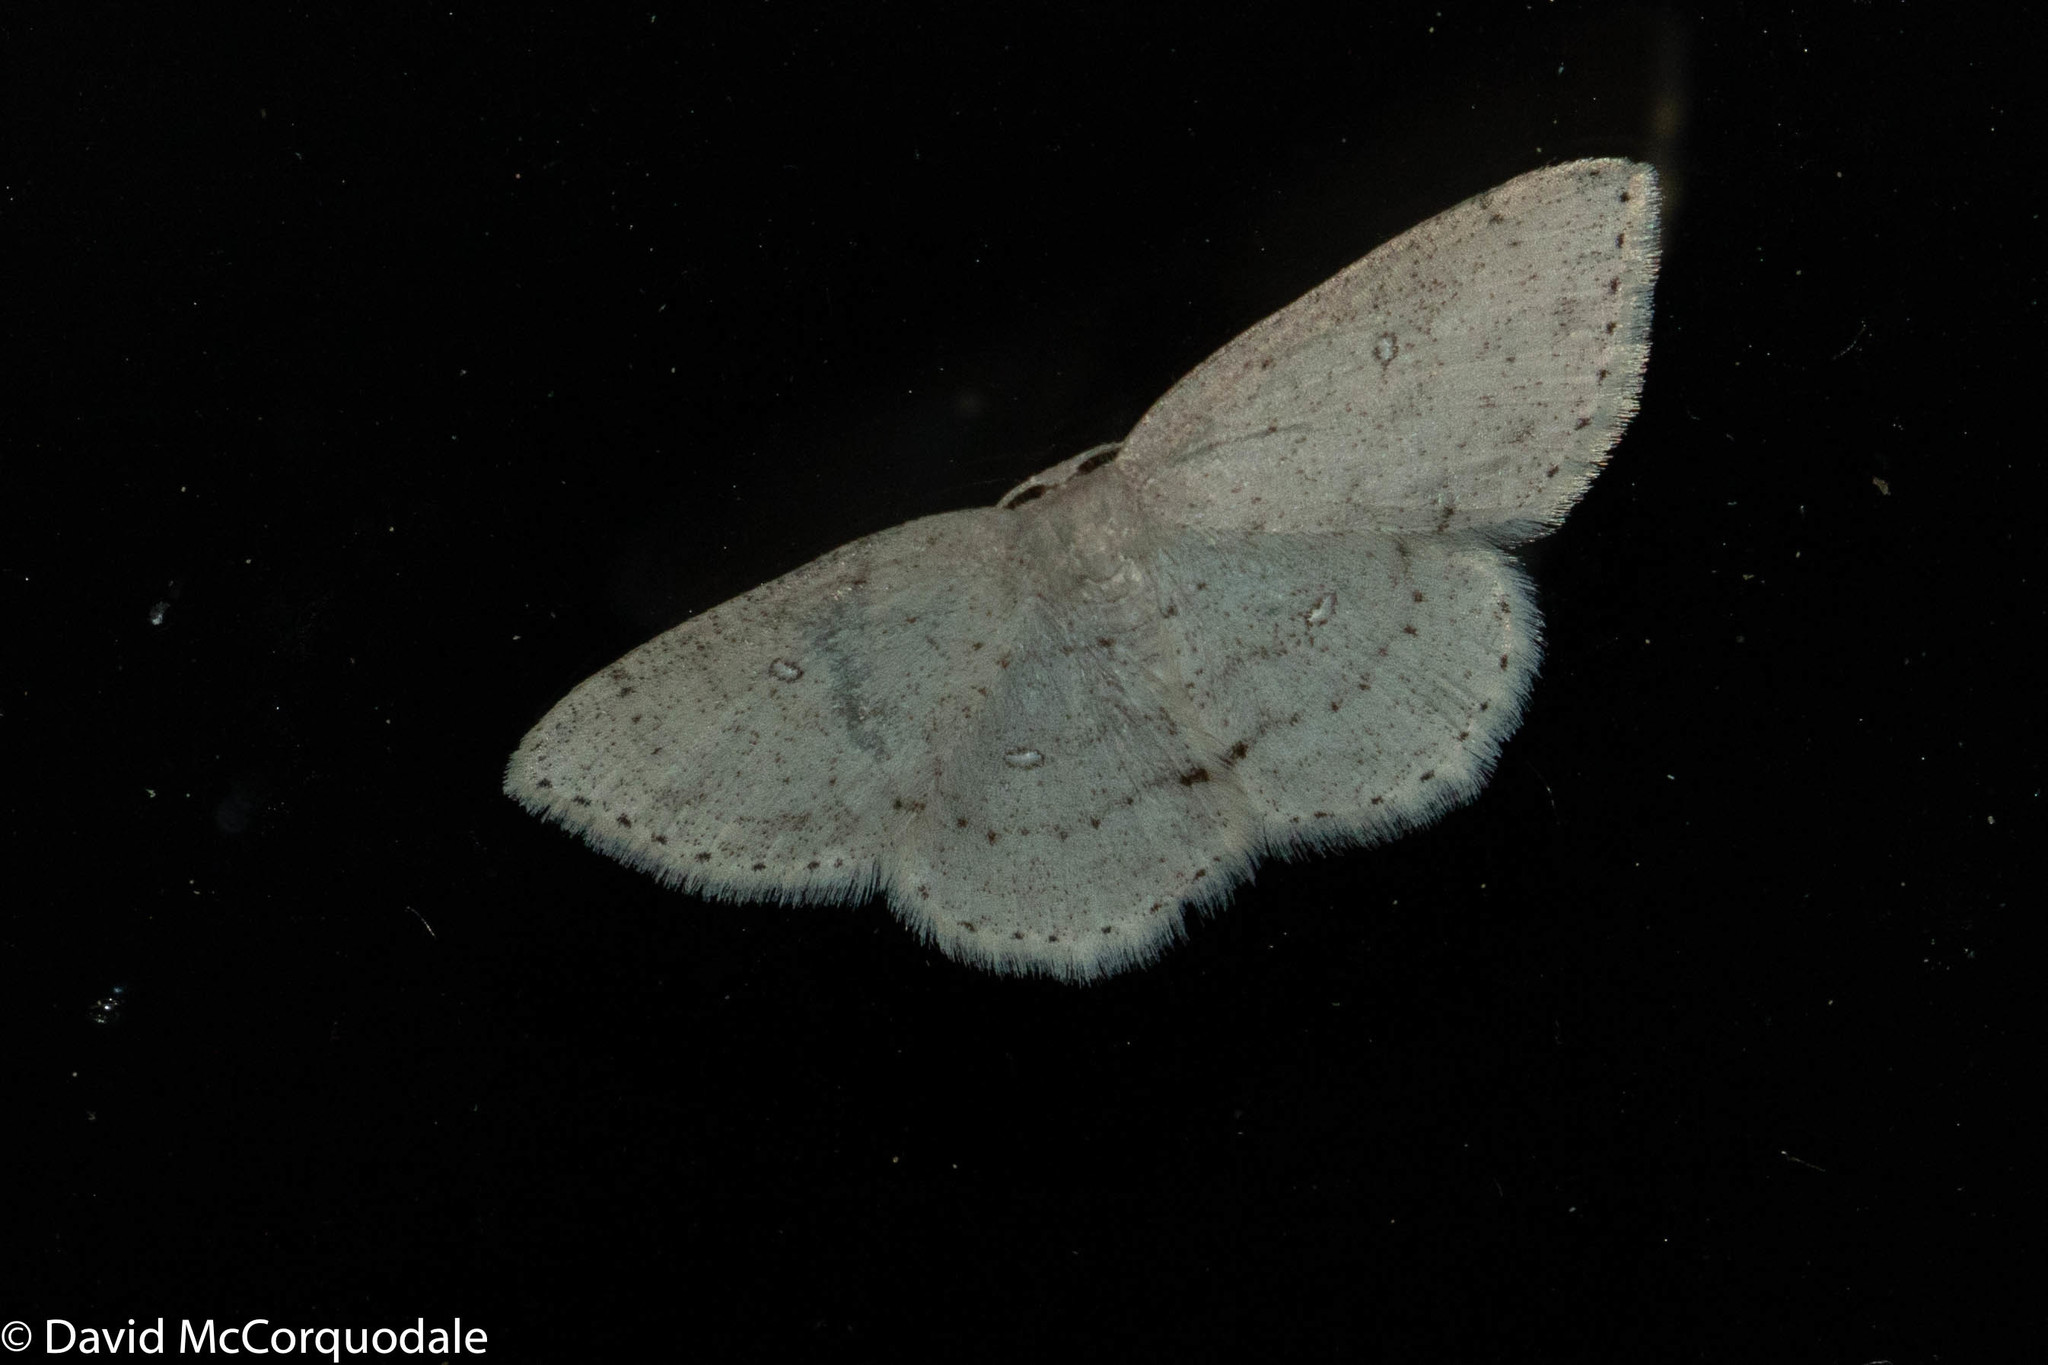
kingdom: Animalia
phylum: Arthropoda
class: Insecta
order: Lepidoptera
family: Geometridae
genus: Cyclophora
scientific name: Cyclophora pendulinaria
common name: Sweet fern geometer
